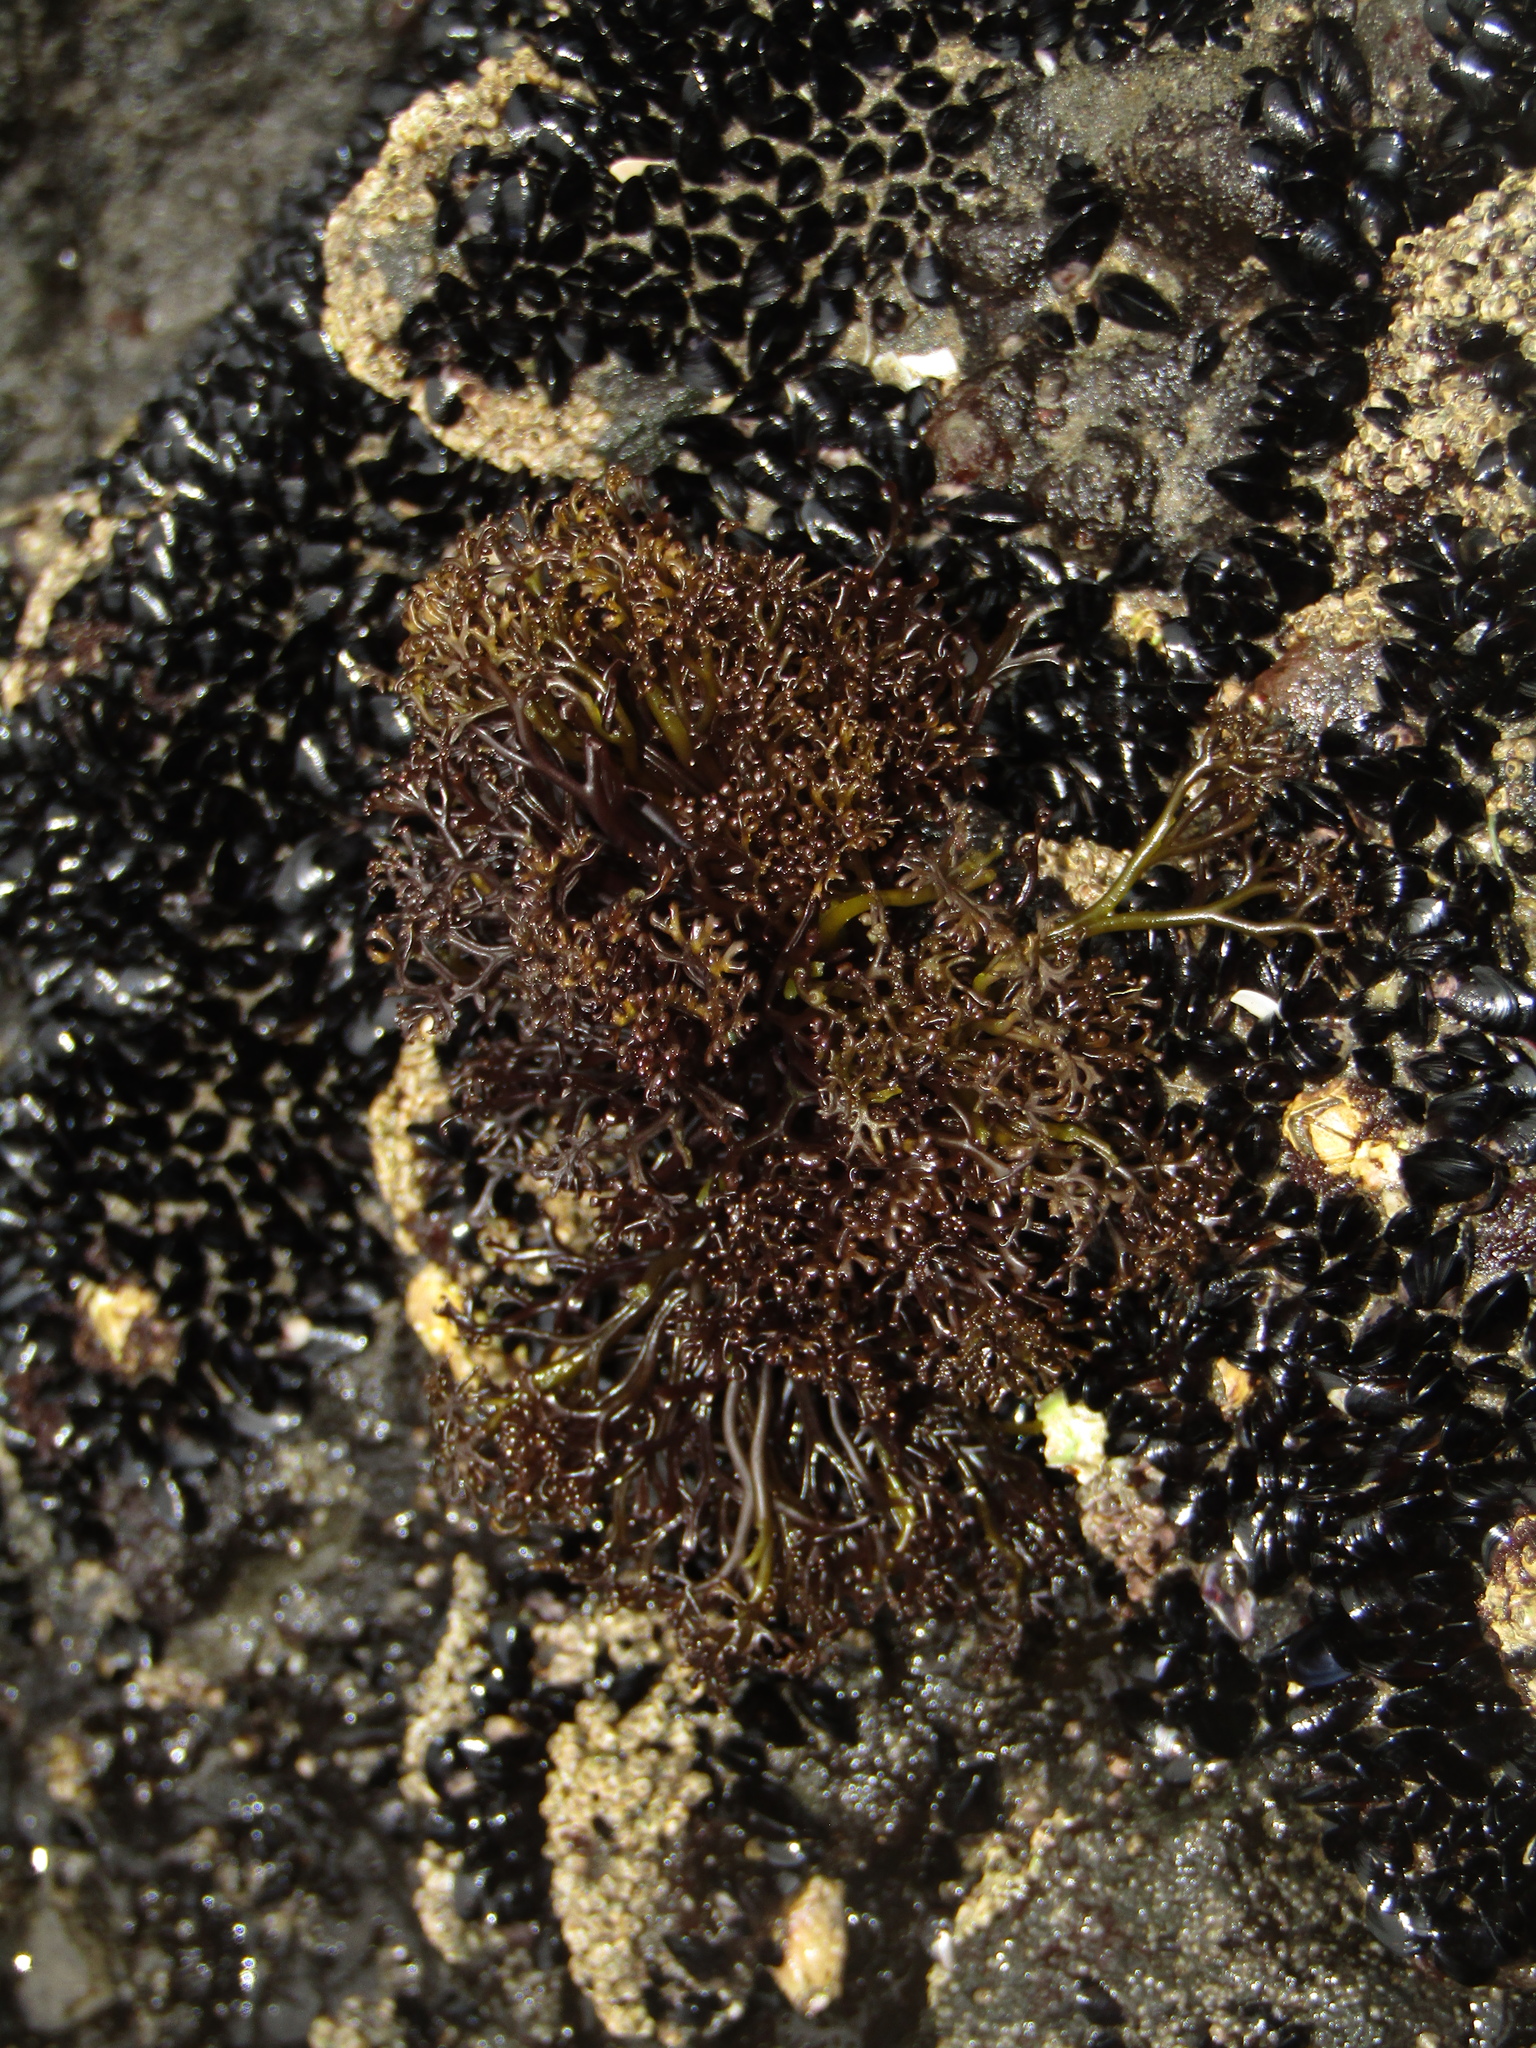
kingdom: Plantae
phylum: Rhodophyta
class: Florideophyceae
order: Gigartinales
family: Gigartinaceae
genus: Psilophycus
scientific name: Psilophycus alveatus
